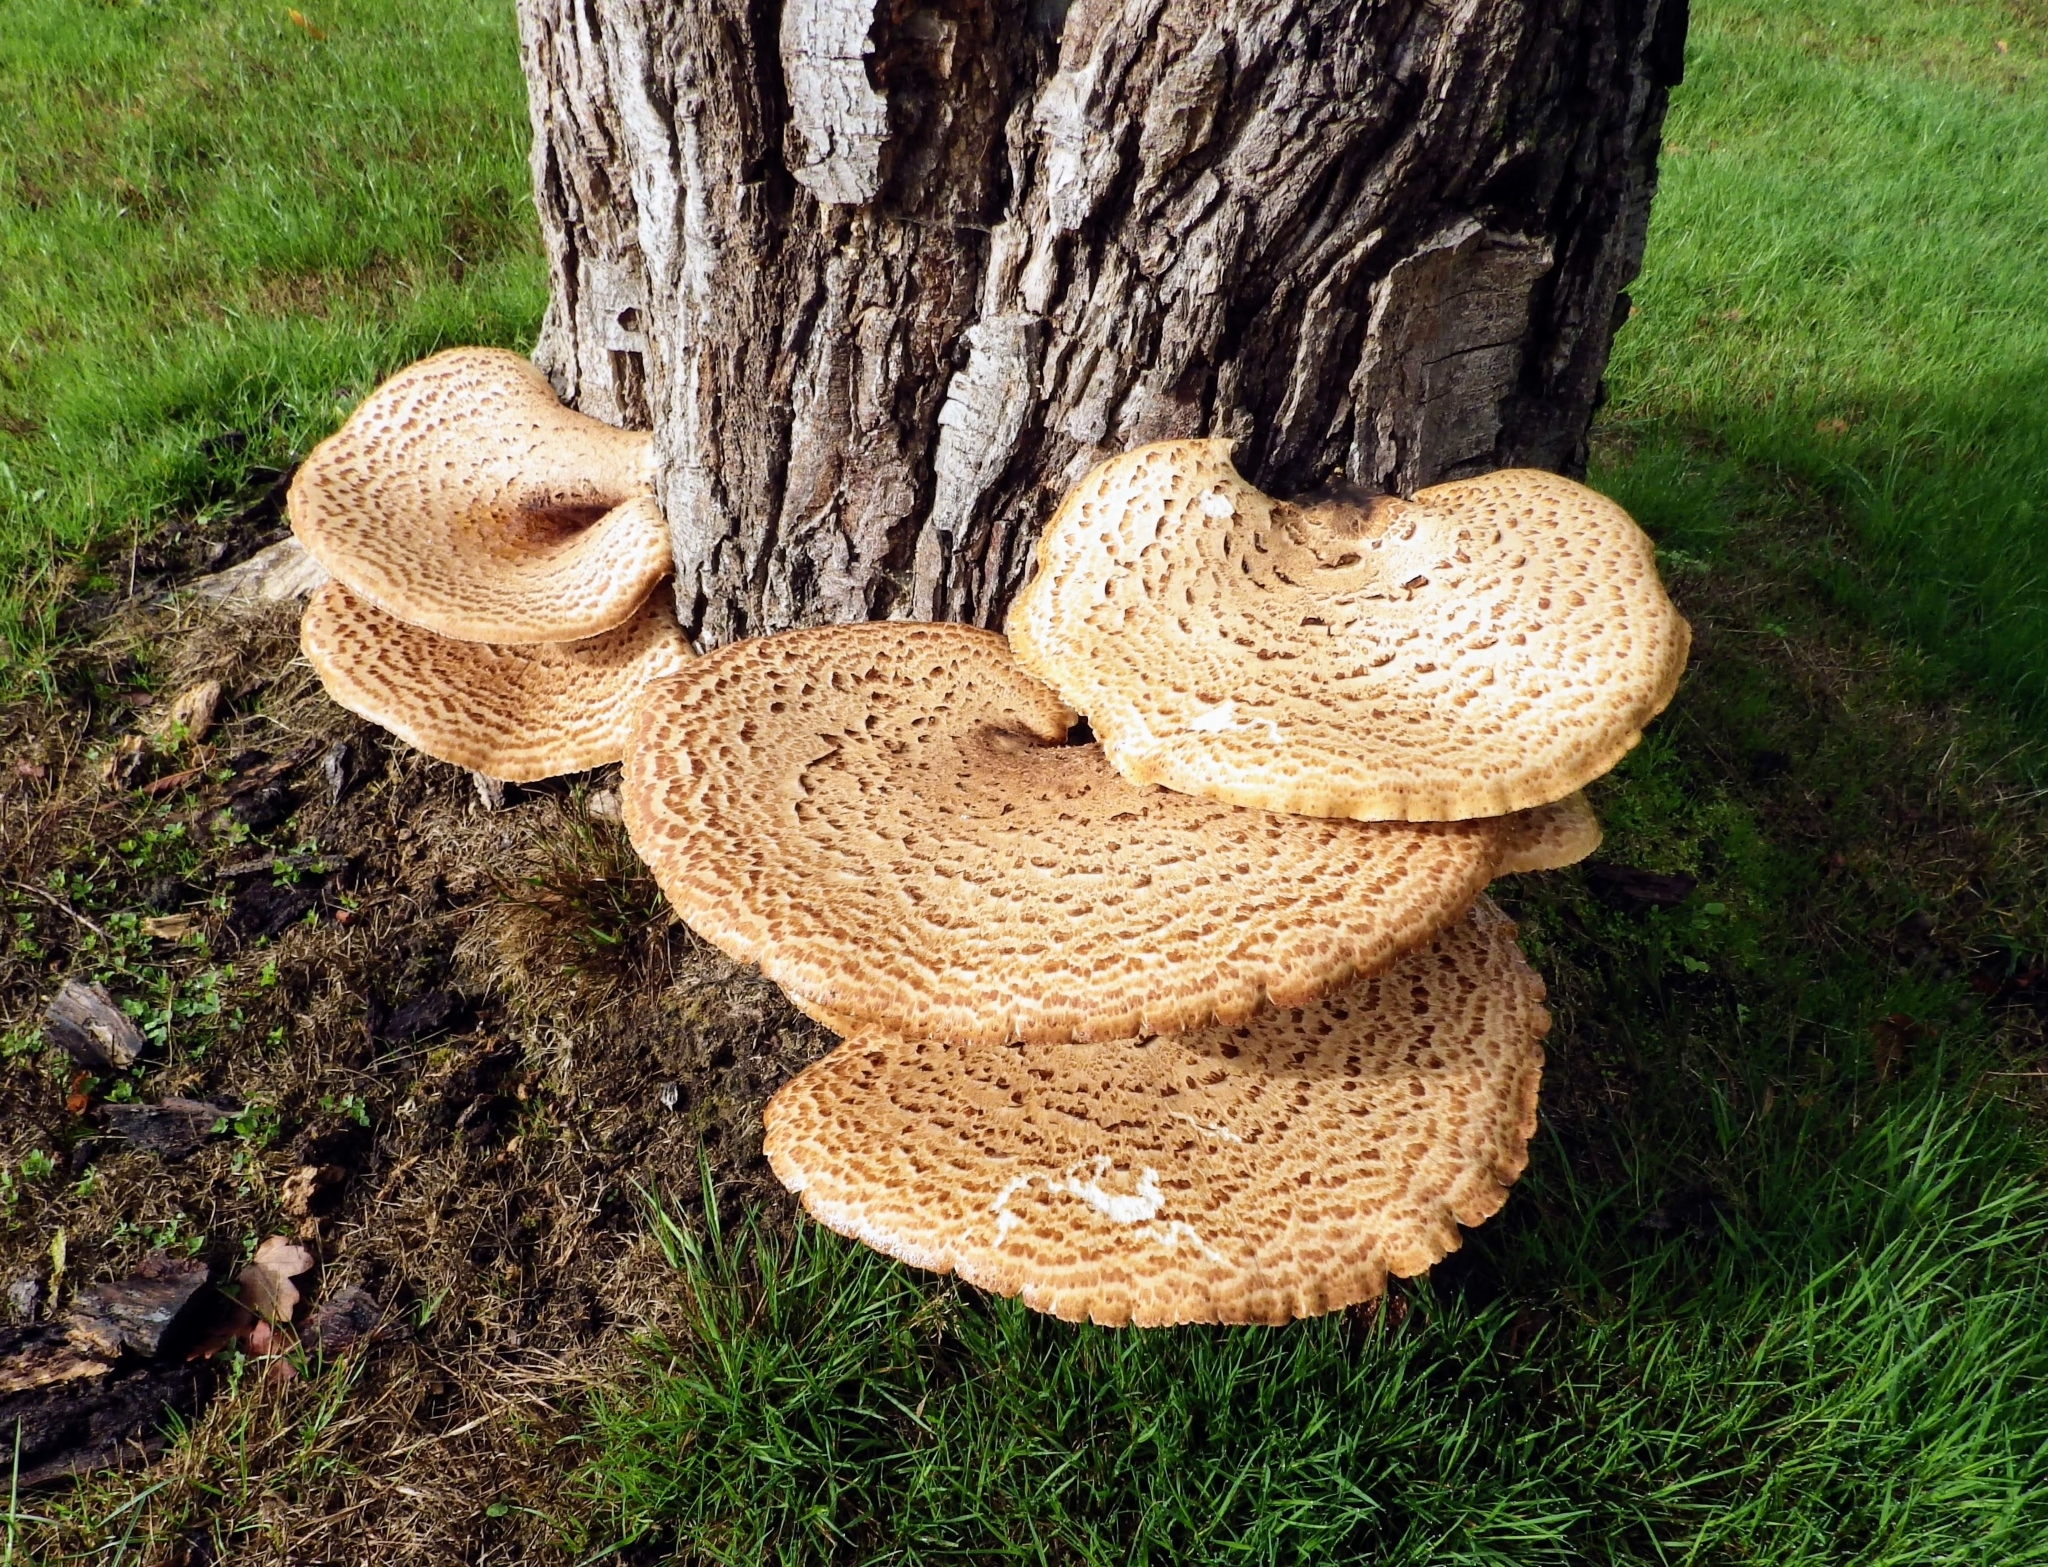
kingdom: Fungi
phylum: Basidiomycota
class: Agaricomycetes
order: Polyporales
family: Polyporaceae
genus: Cerioporus
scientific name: Cerioporus squamosus
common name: Dryad's saddle
